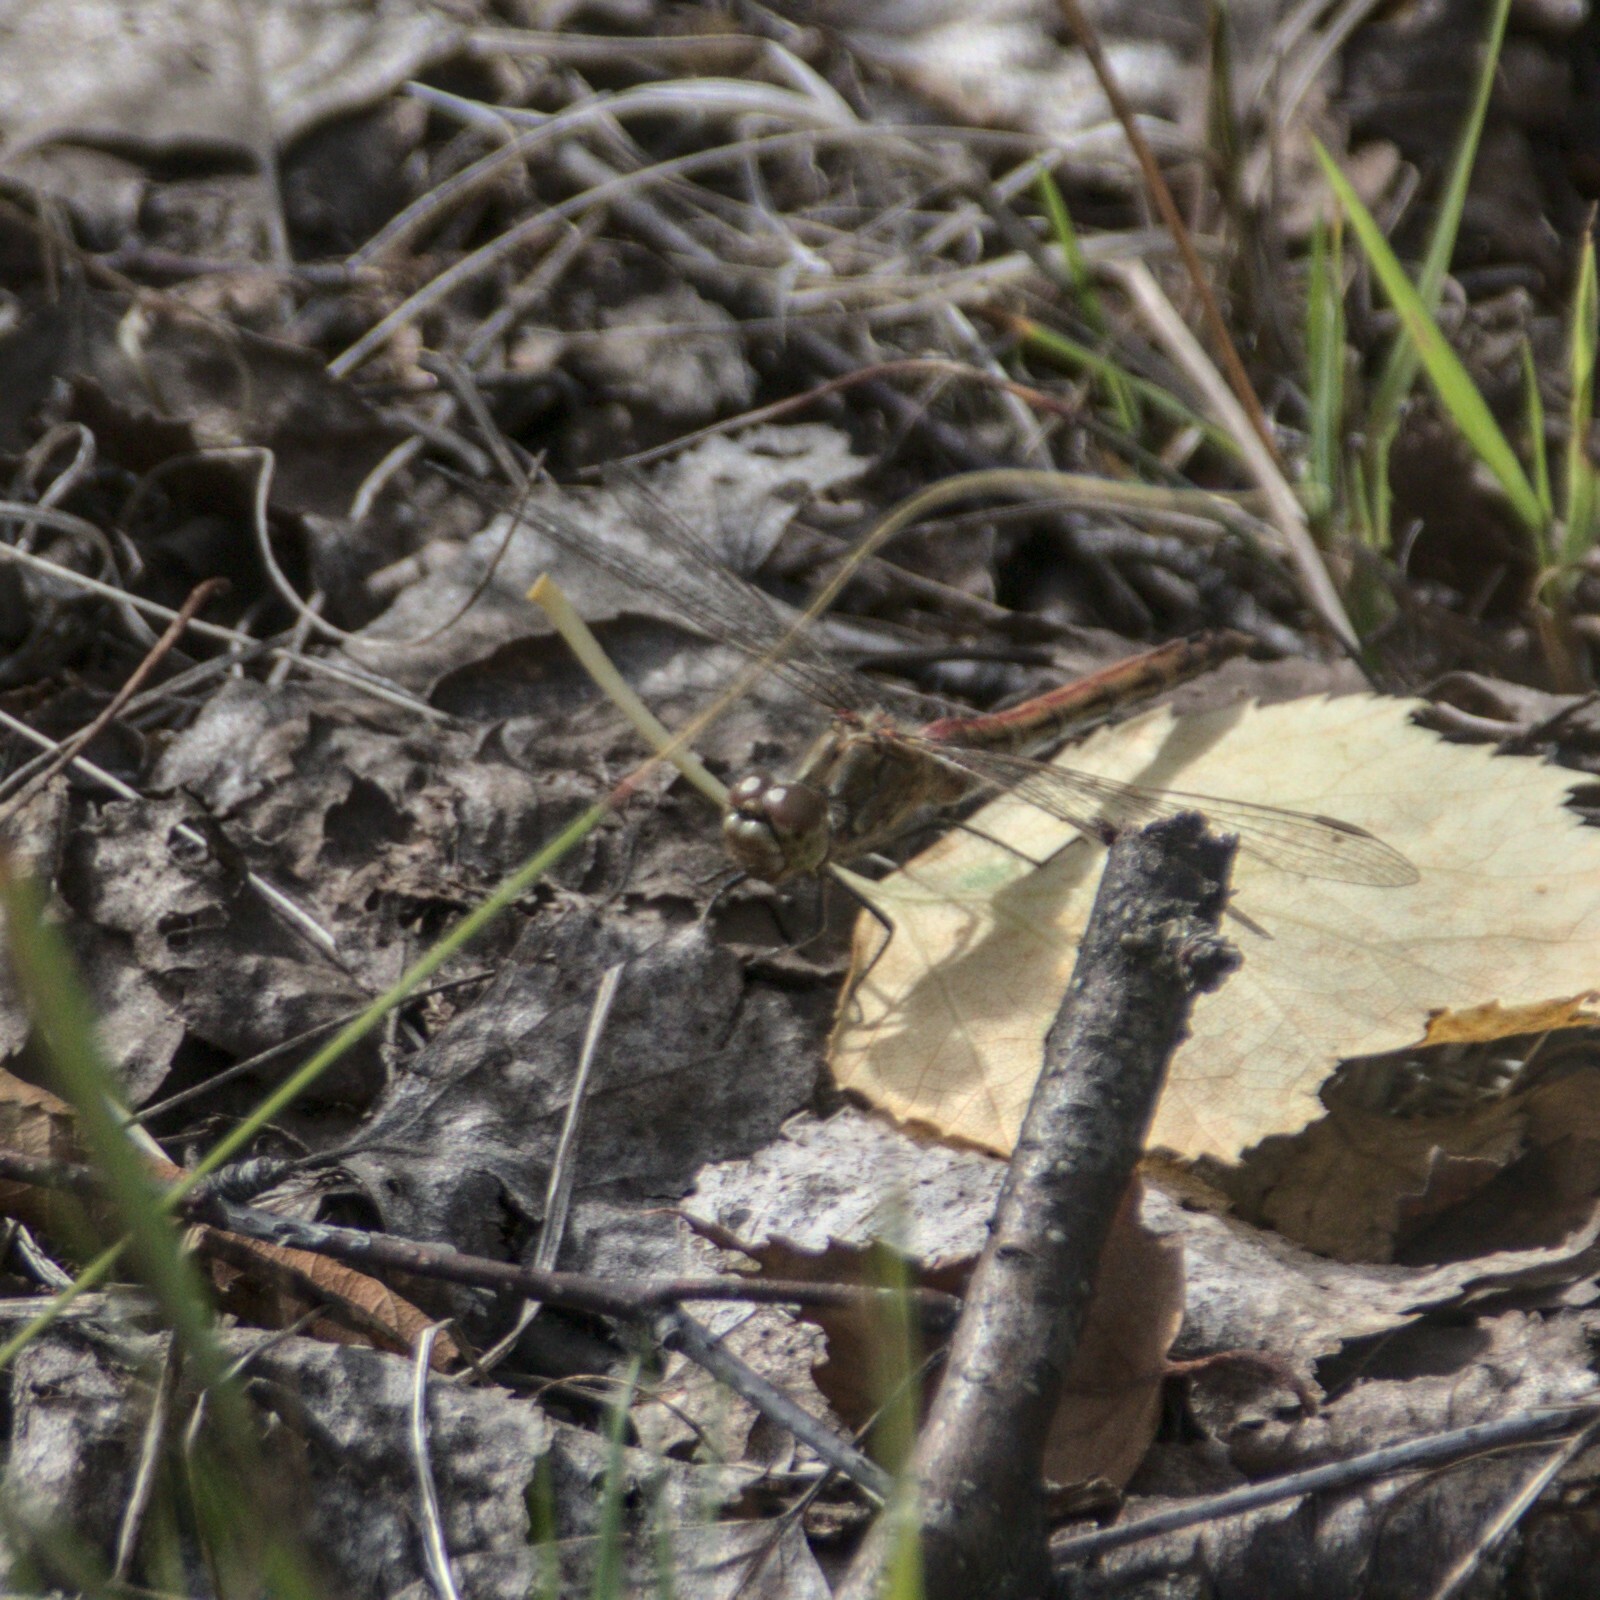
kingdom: Animalia
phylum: Arthropoda
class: Insecta
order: Odonata
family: Libellulidae
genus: Sympetrum
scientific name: Sympetrum vulgatum
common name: Vagrant darter
